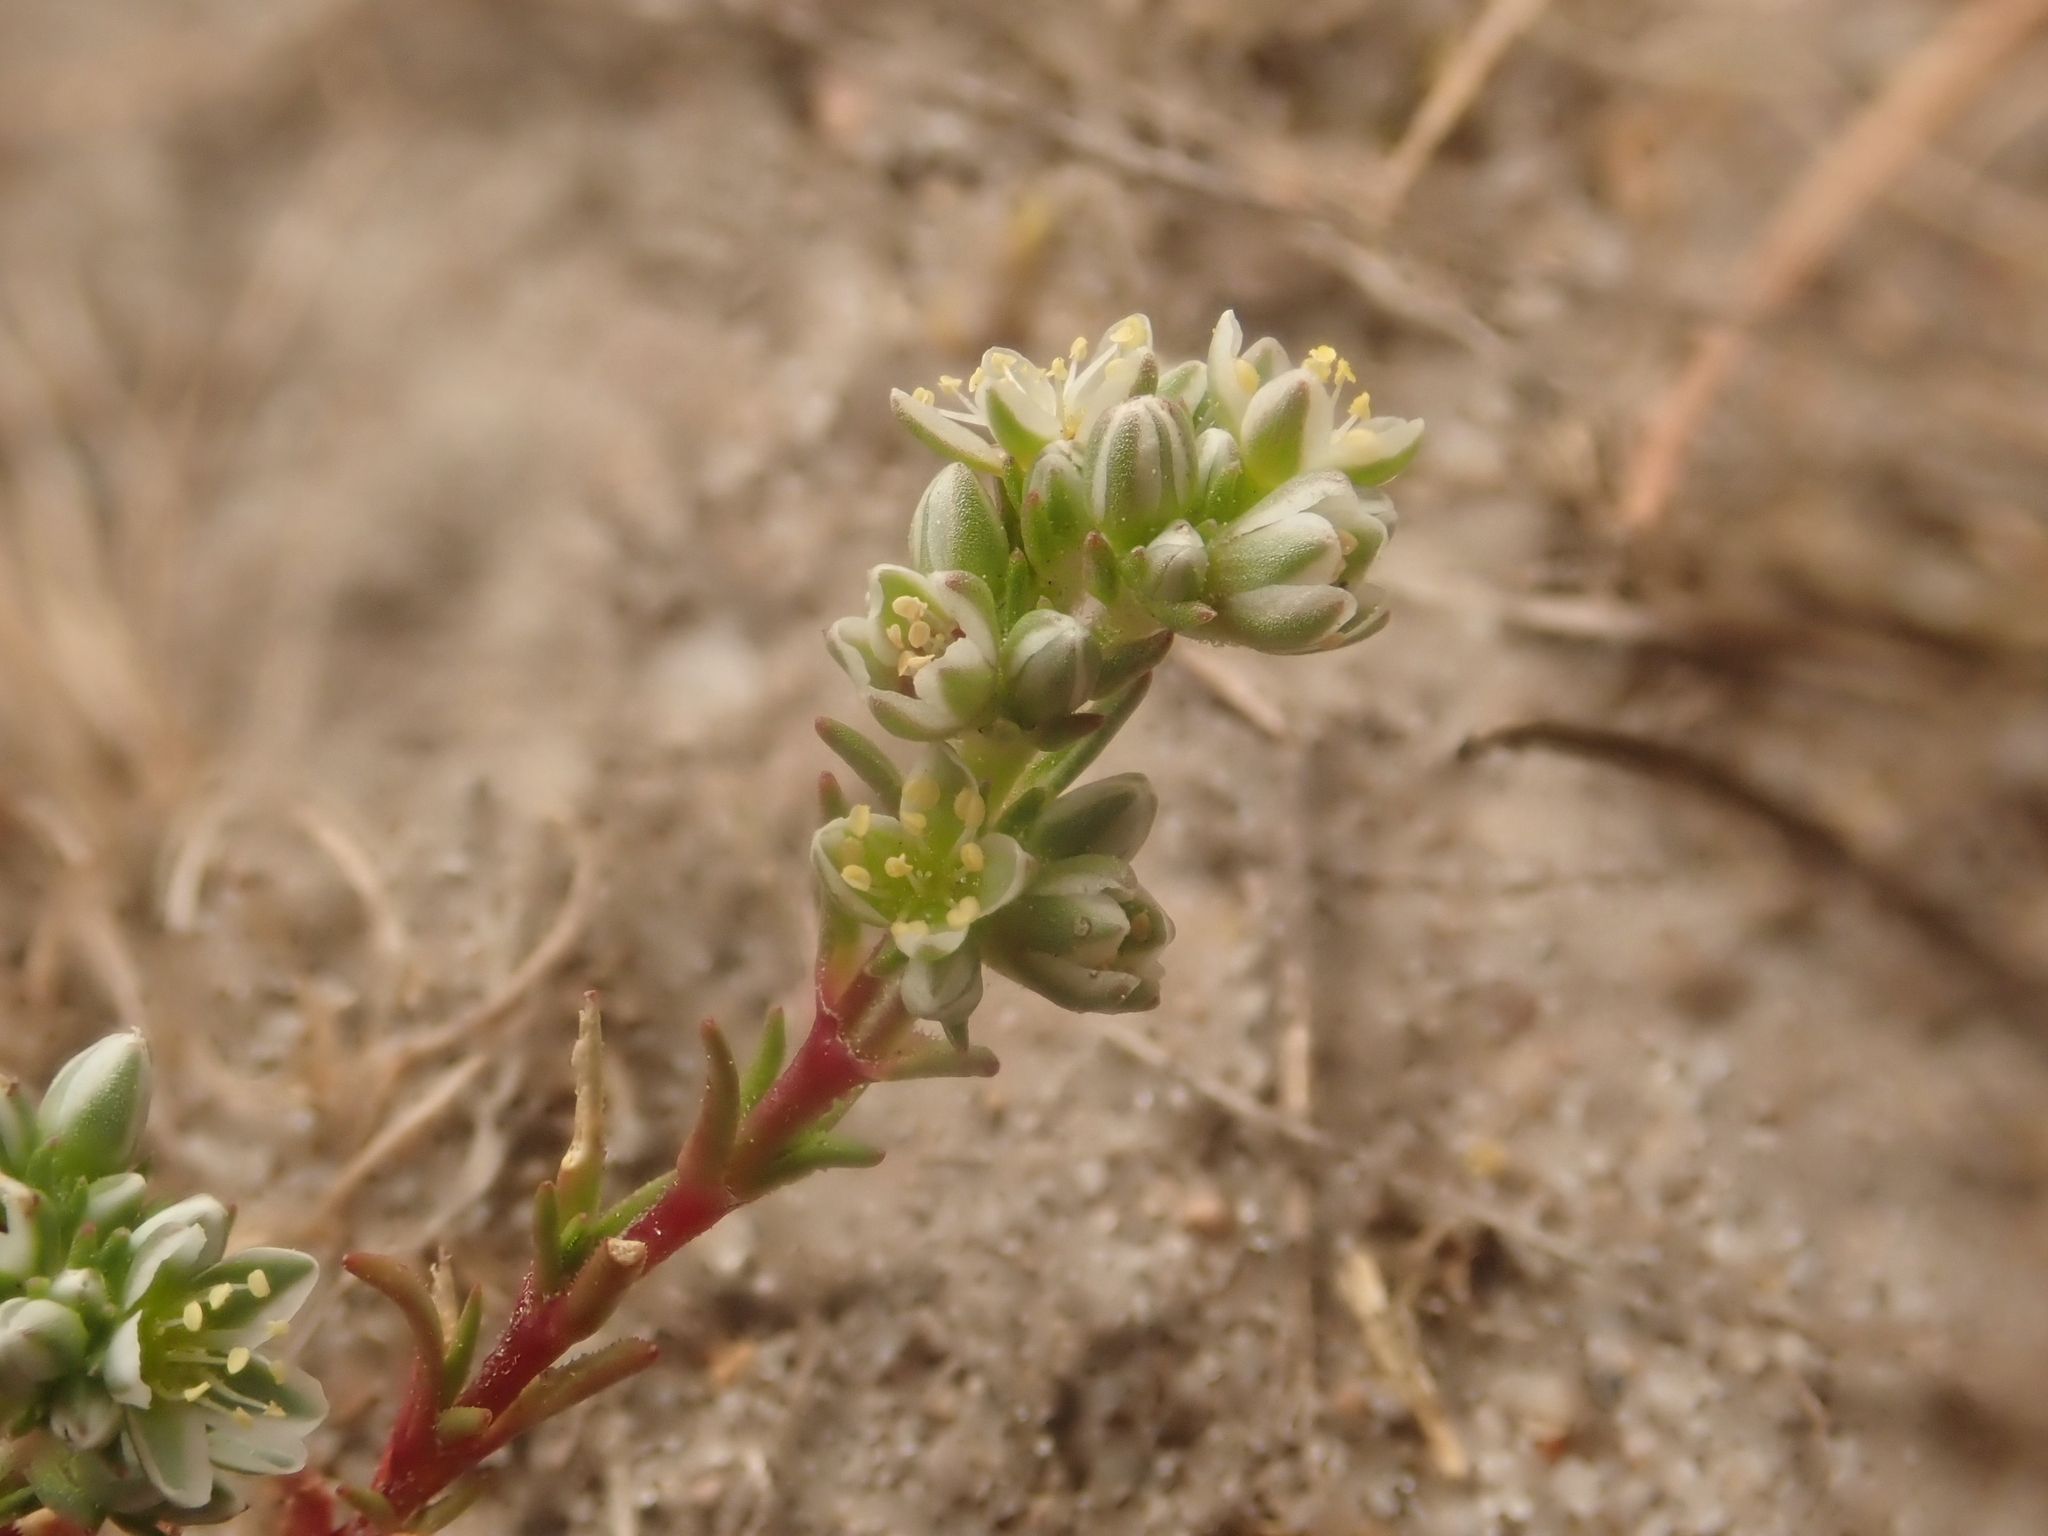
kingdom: Plantae
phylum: Tracheophyta
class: Magnoliopsida
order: Caryophyllales
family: Caryophyllaceae
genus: Scleranthus
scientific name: Scleranthus perennis
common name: Perennial knawel
